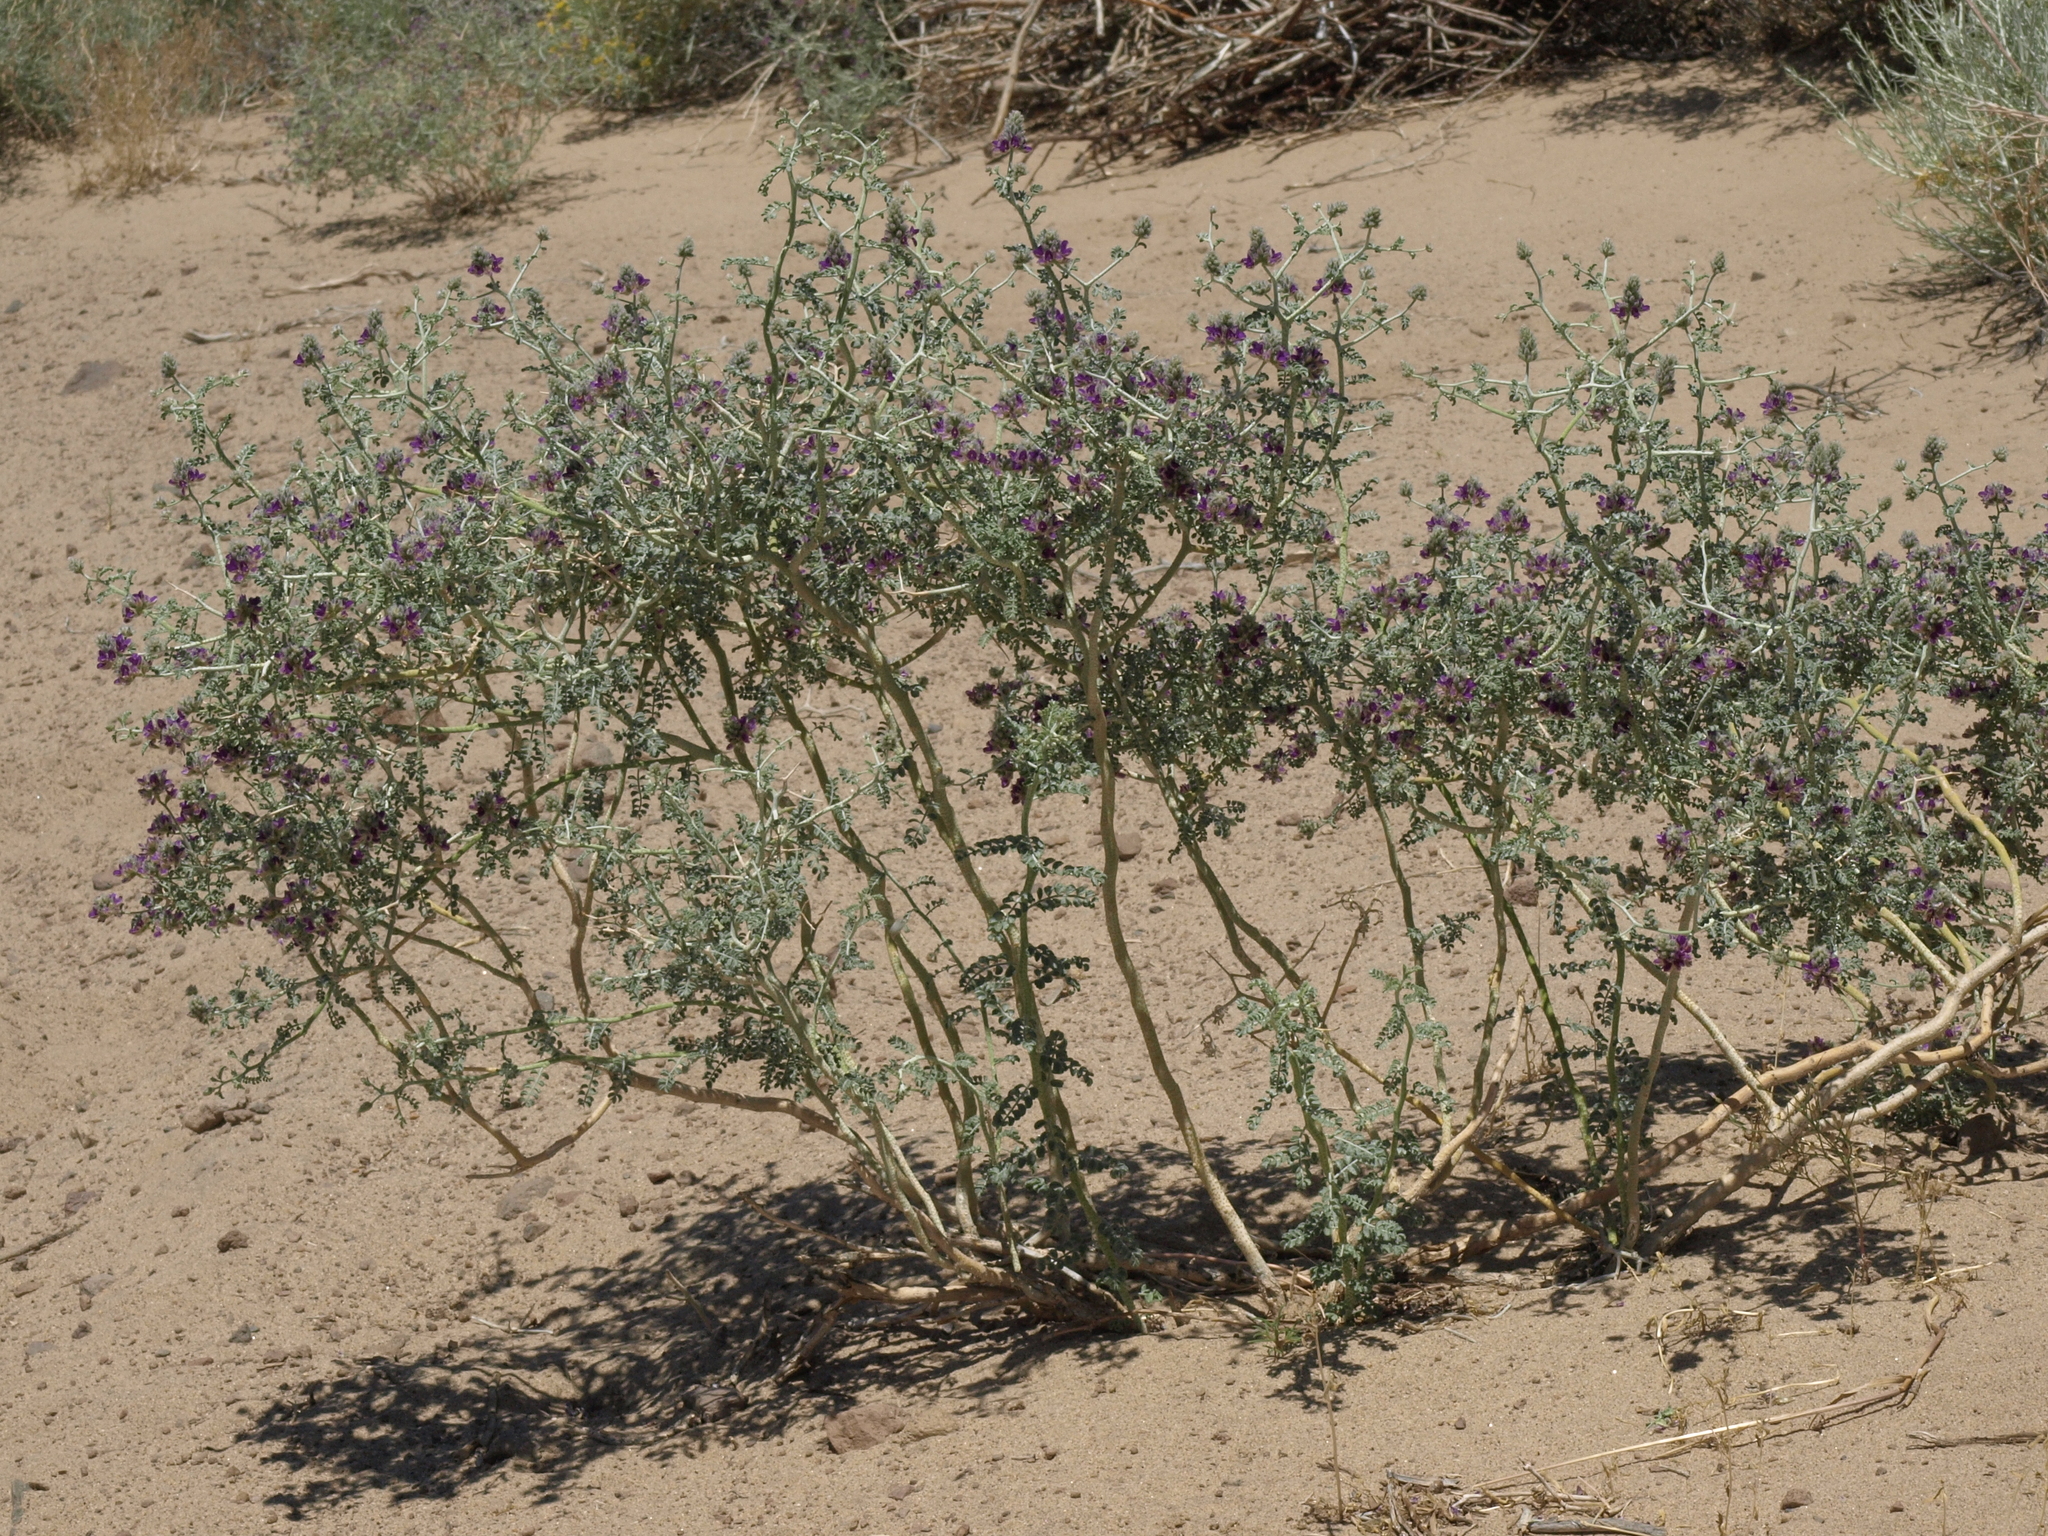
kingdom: Plantae
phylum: Tracheophyta
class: Magnoliopsida
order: Fabales
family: Fabaceae
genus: Psorothamnus
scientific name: Psorothamnus polydenius
